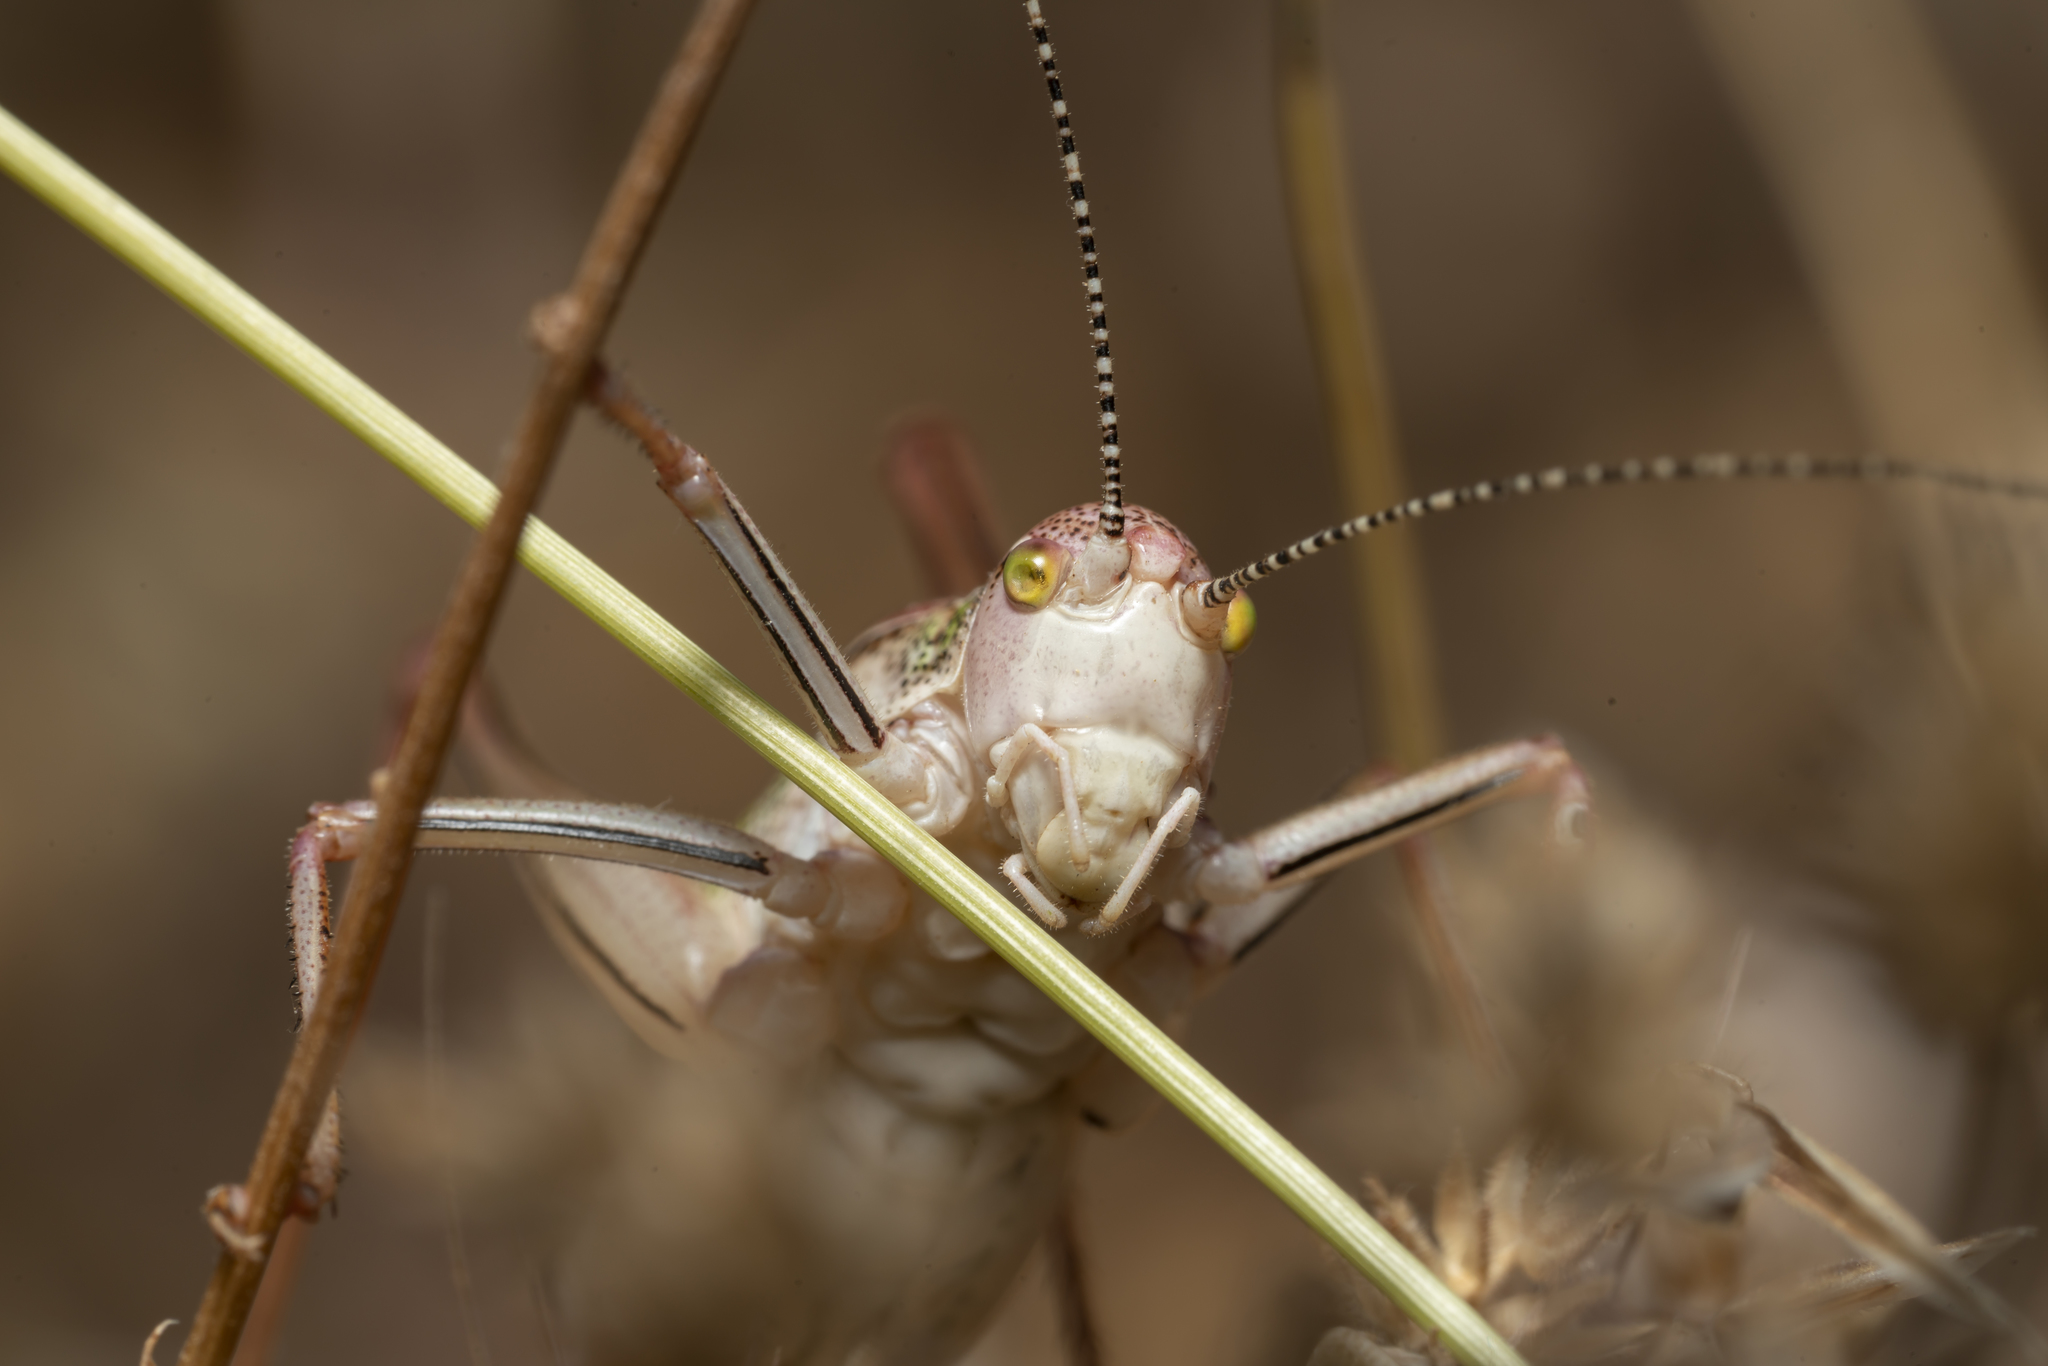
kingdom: Animalia
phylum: Arthropoda
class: Insecta
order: Orthoptera
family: Tettigoniidae
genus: Poecilimon
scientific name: Poecilimon sanctipauli
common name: Saint-paul's bright bush-cricket
